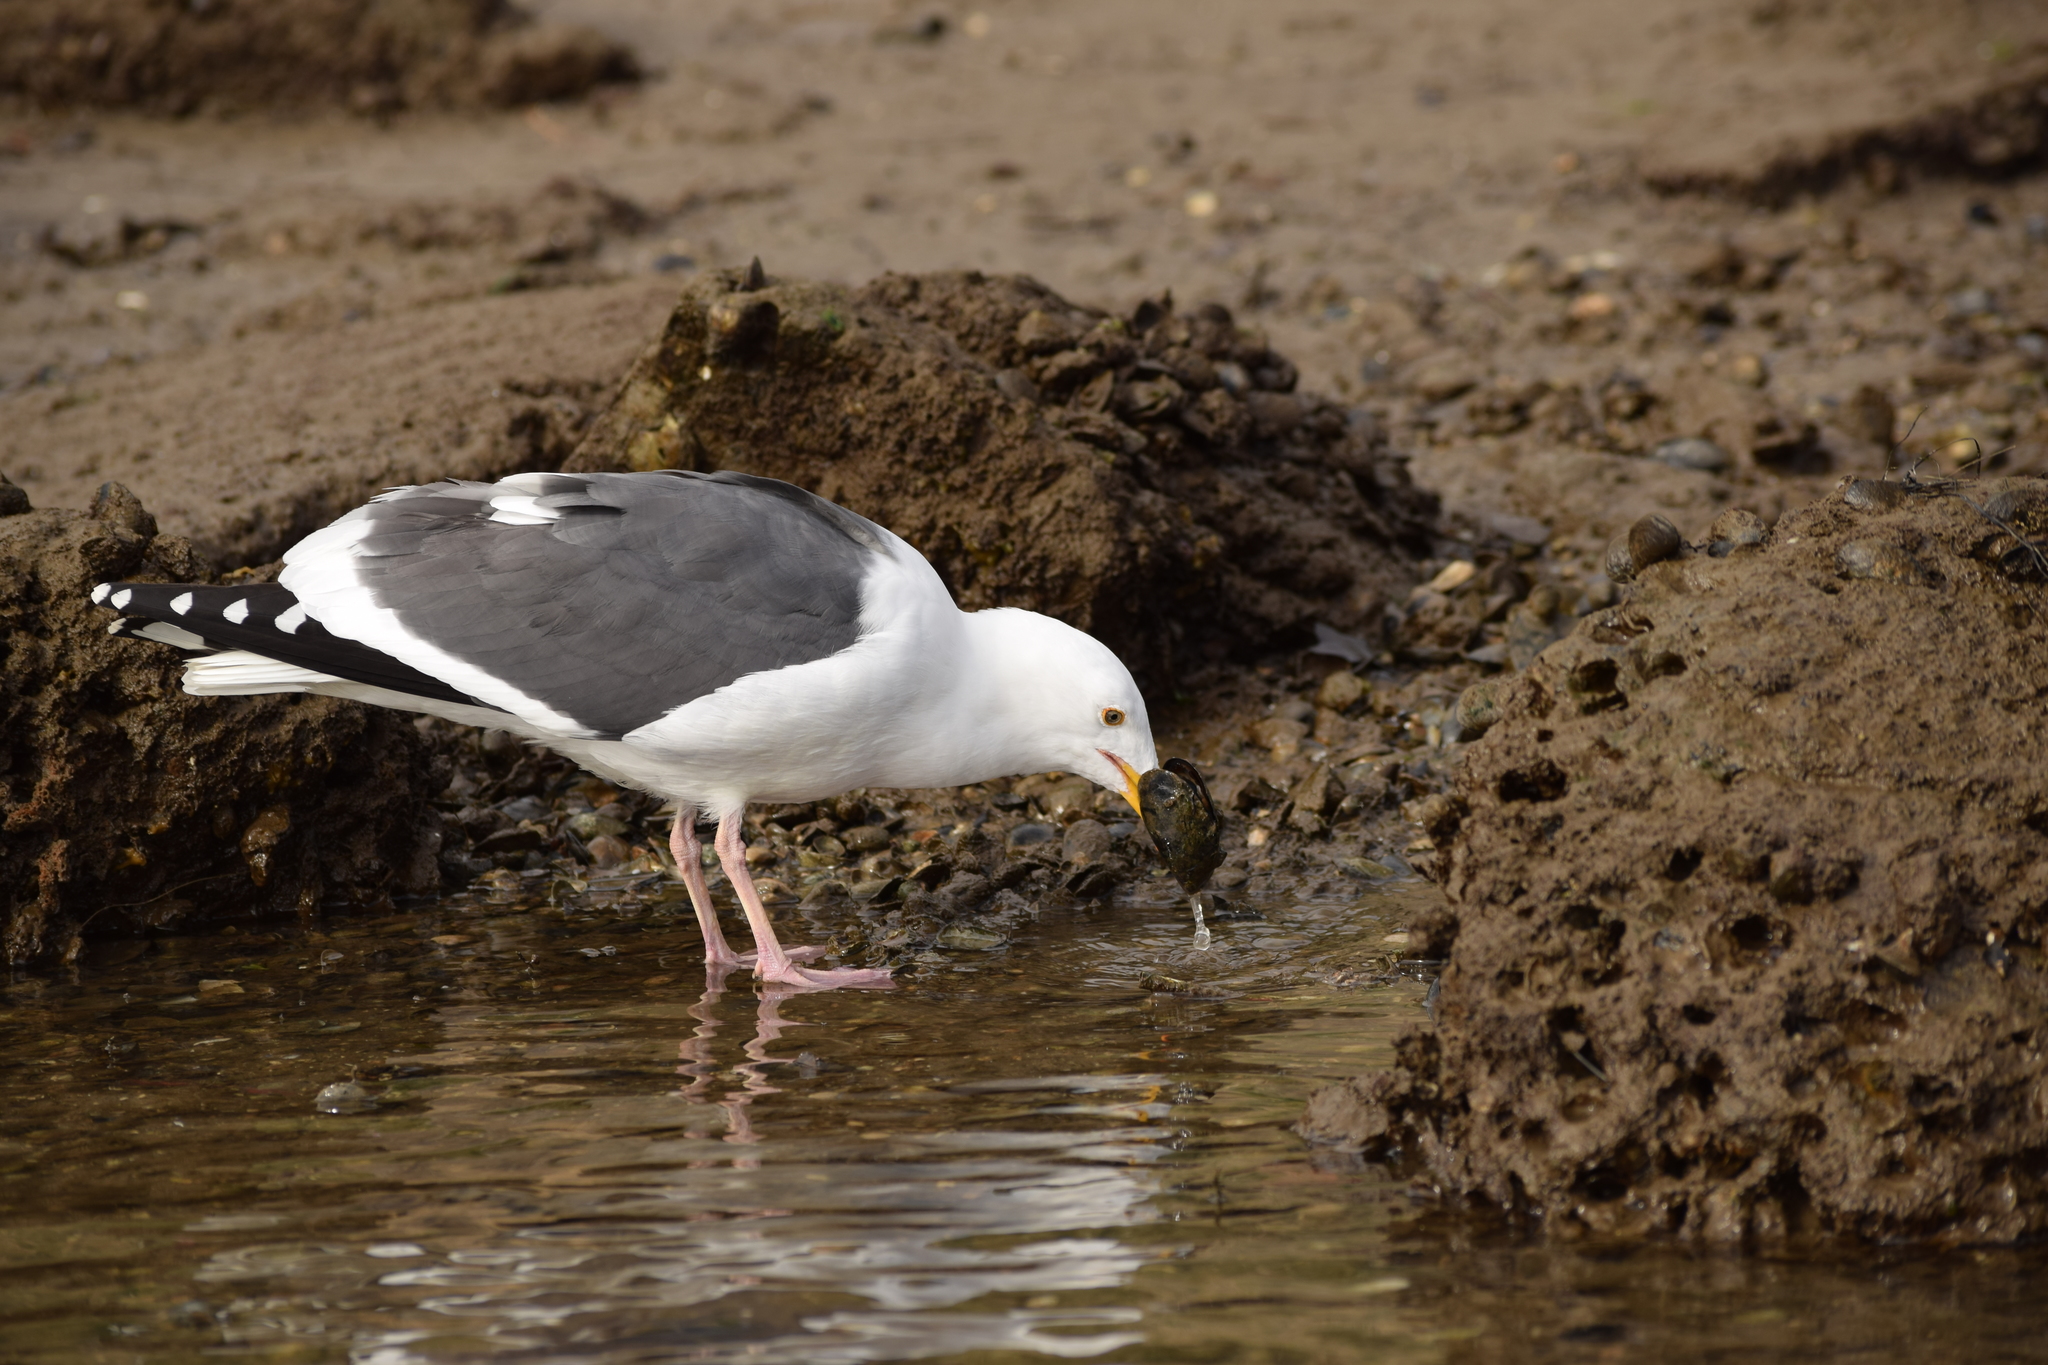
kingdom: Animalia
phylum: Chordata
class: Aves
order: Charadriiformes
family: Laridae
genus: Larus
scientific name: Larus occidentalis
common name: Western gull
